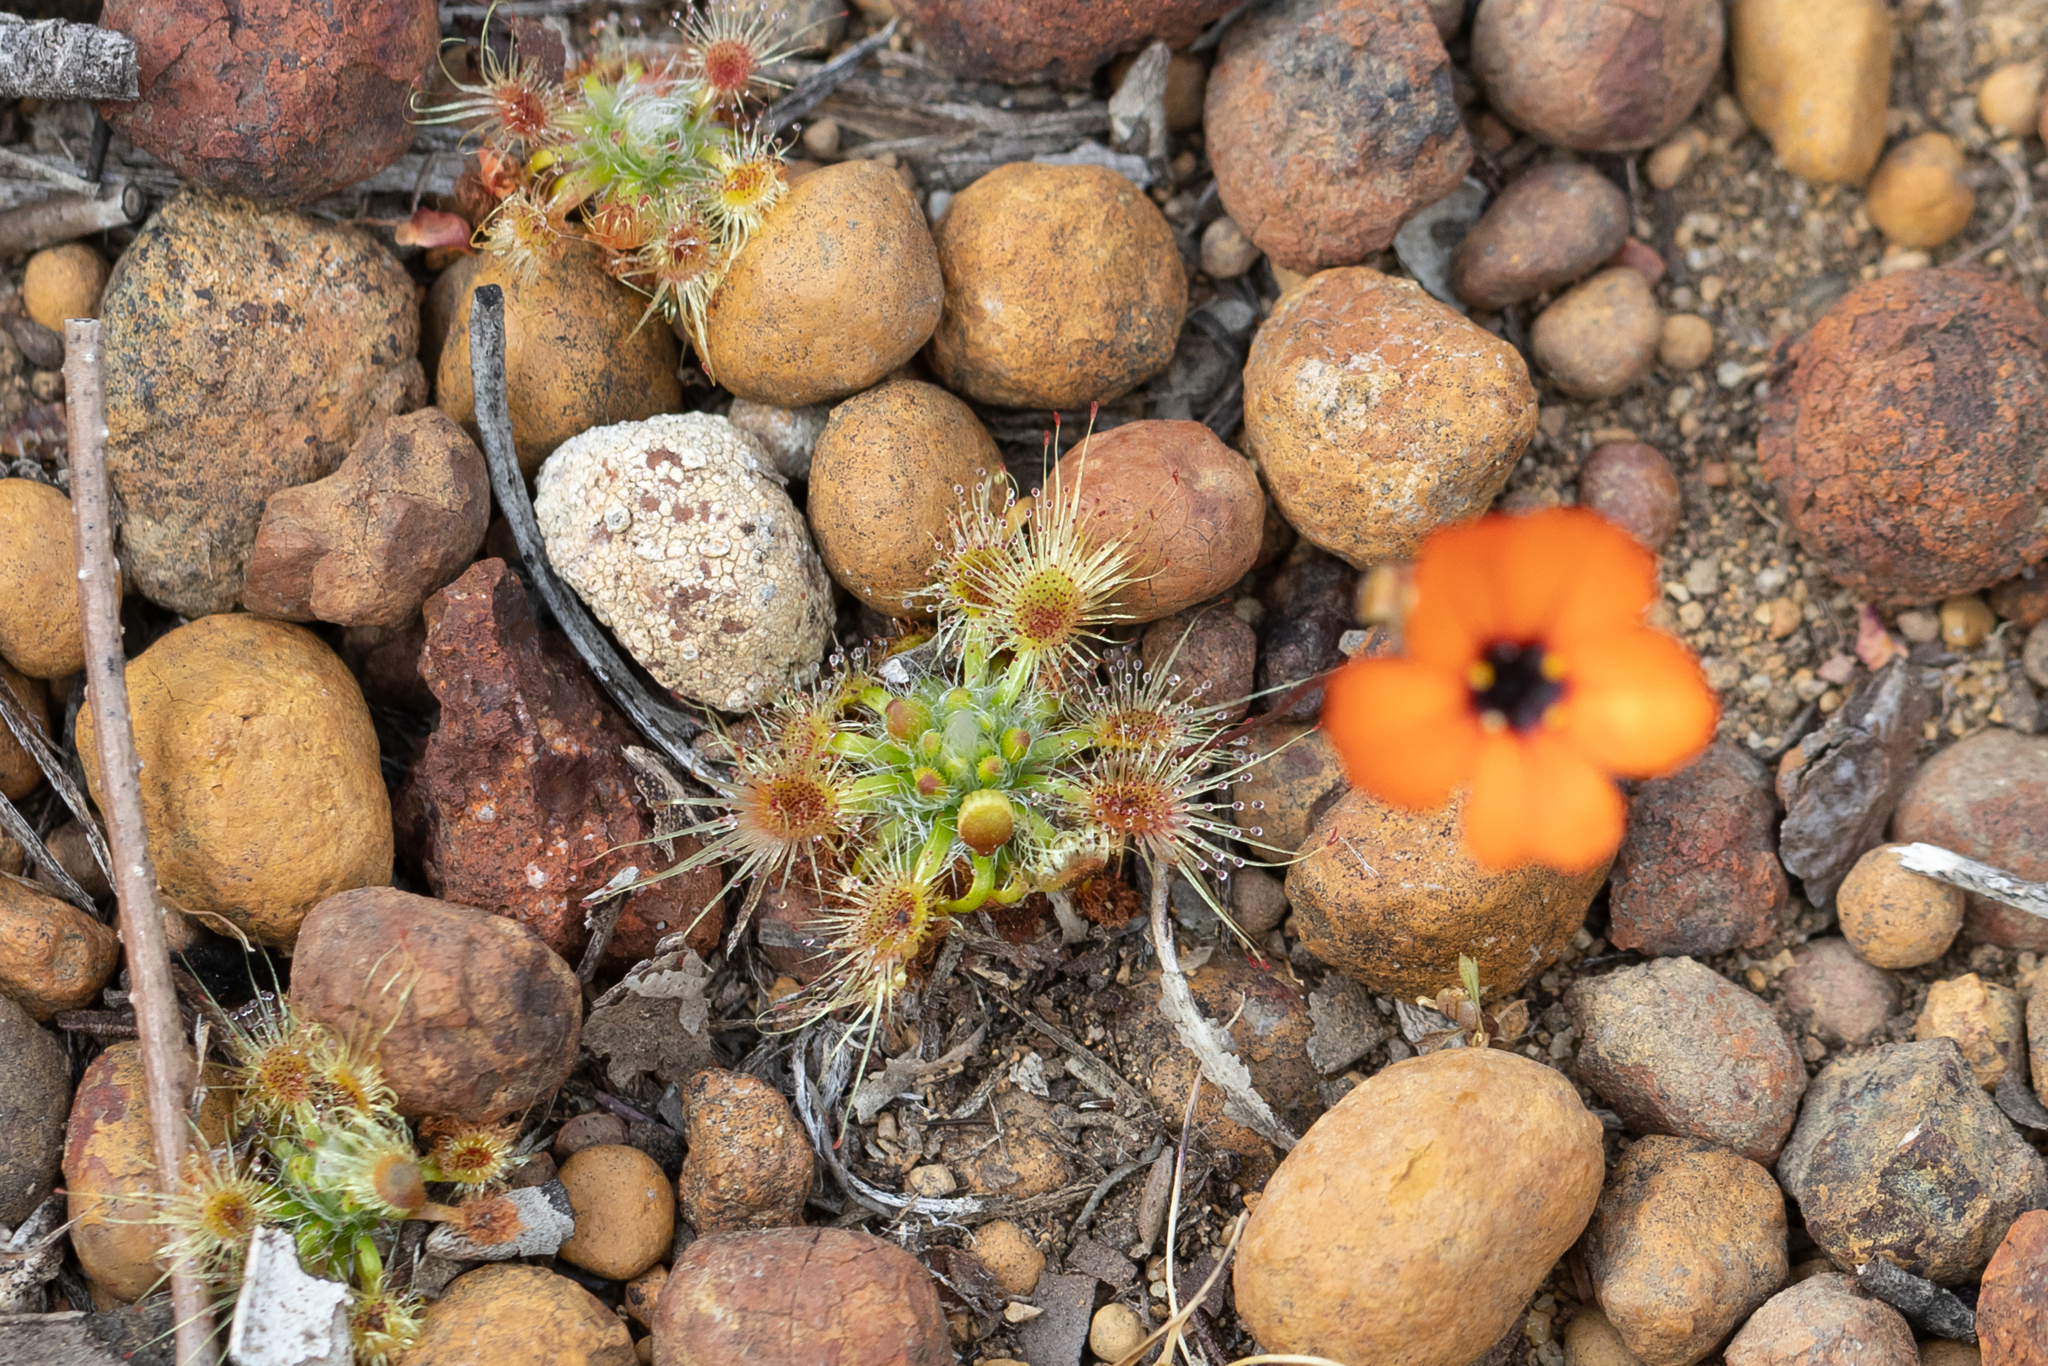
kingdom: Plantae
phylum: Tracheophyta
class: Magnoliopsida
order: Caryophyllales
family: Droseraceae
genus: Drosera
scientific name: Drosera hyperostigma
